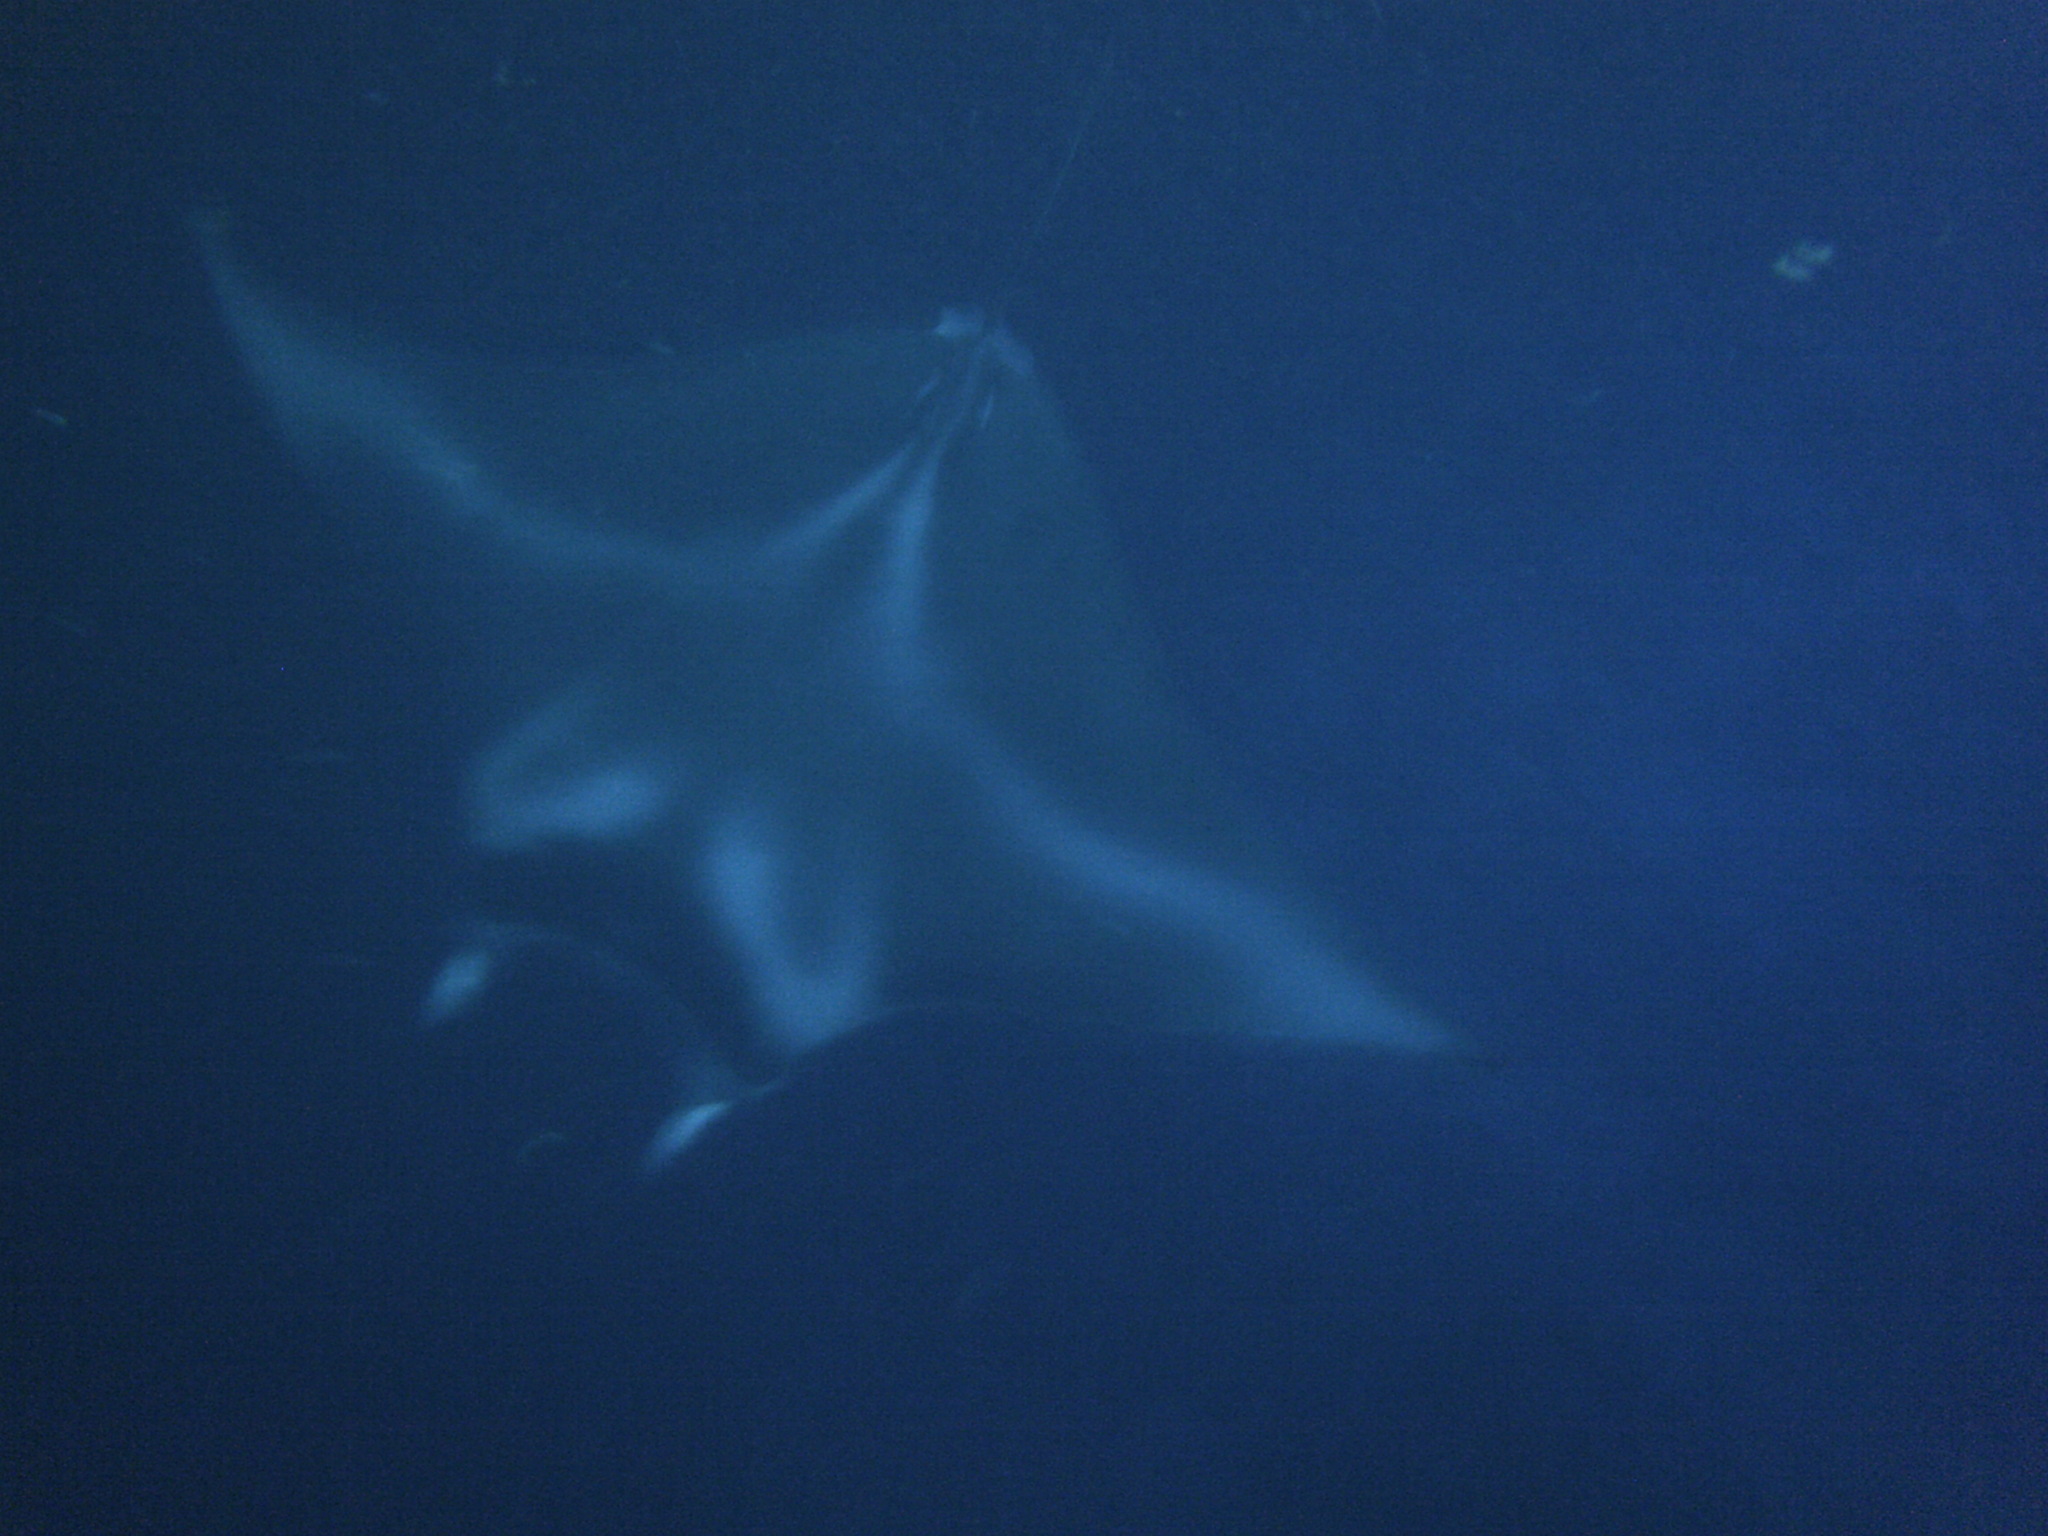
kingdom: Animalia
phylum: Chordata
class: Elasmobranchii
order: Myliobatiformes
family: Myliobatidae
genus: Mobula
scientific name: Mobula alfredi
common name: Reef manta ray
